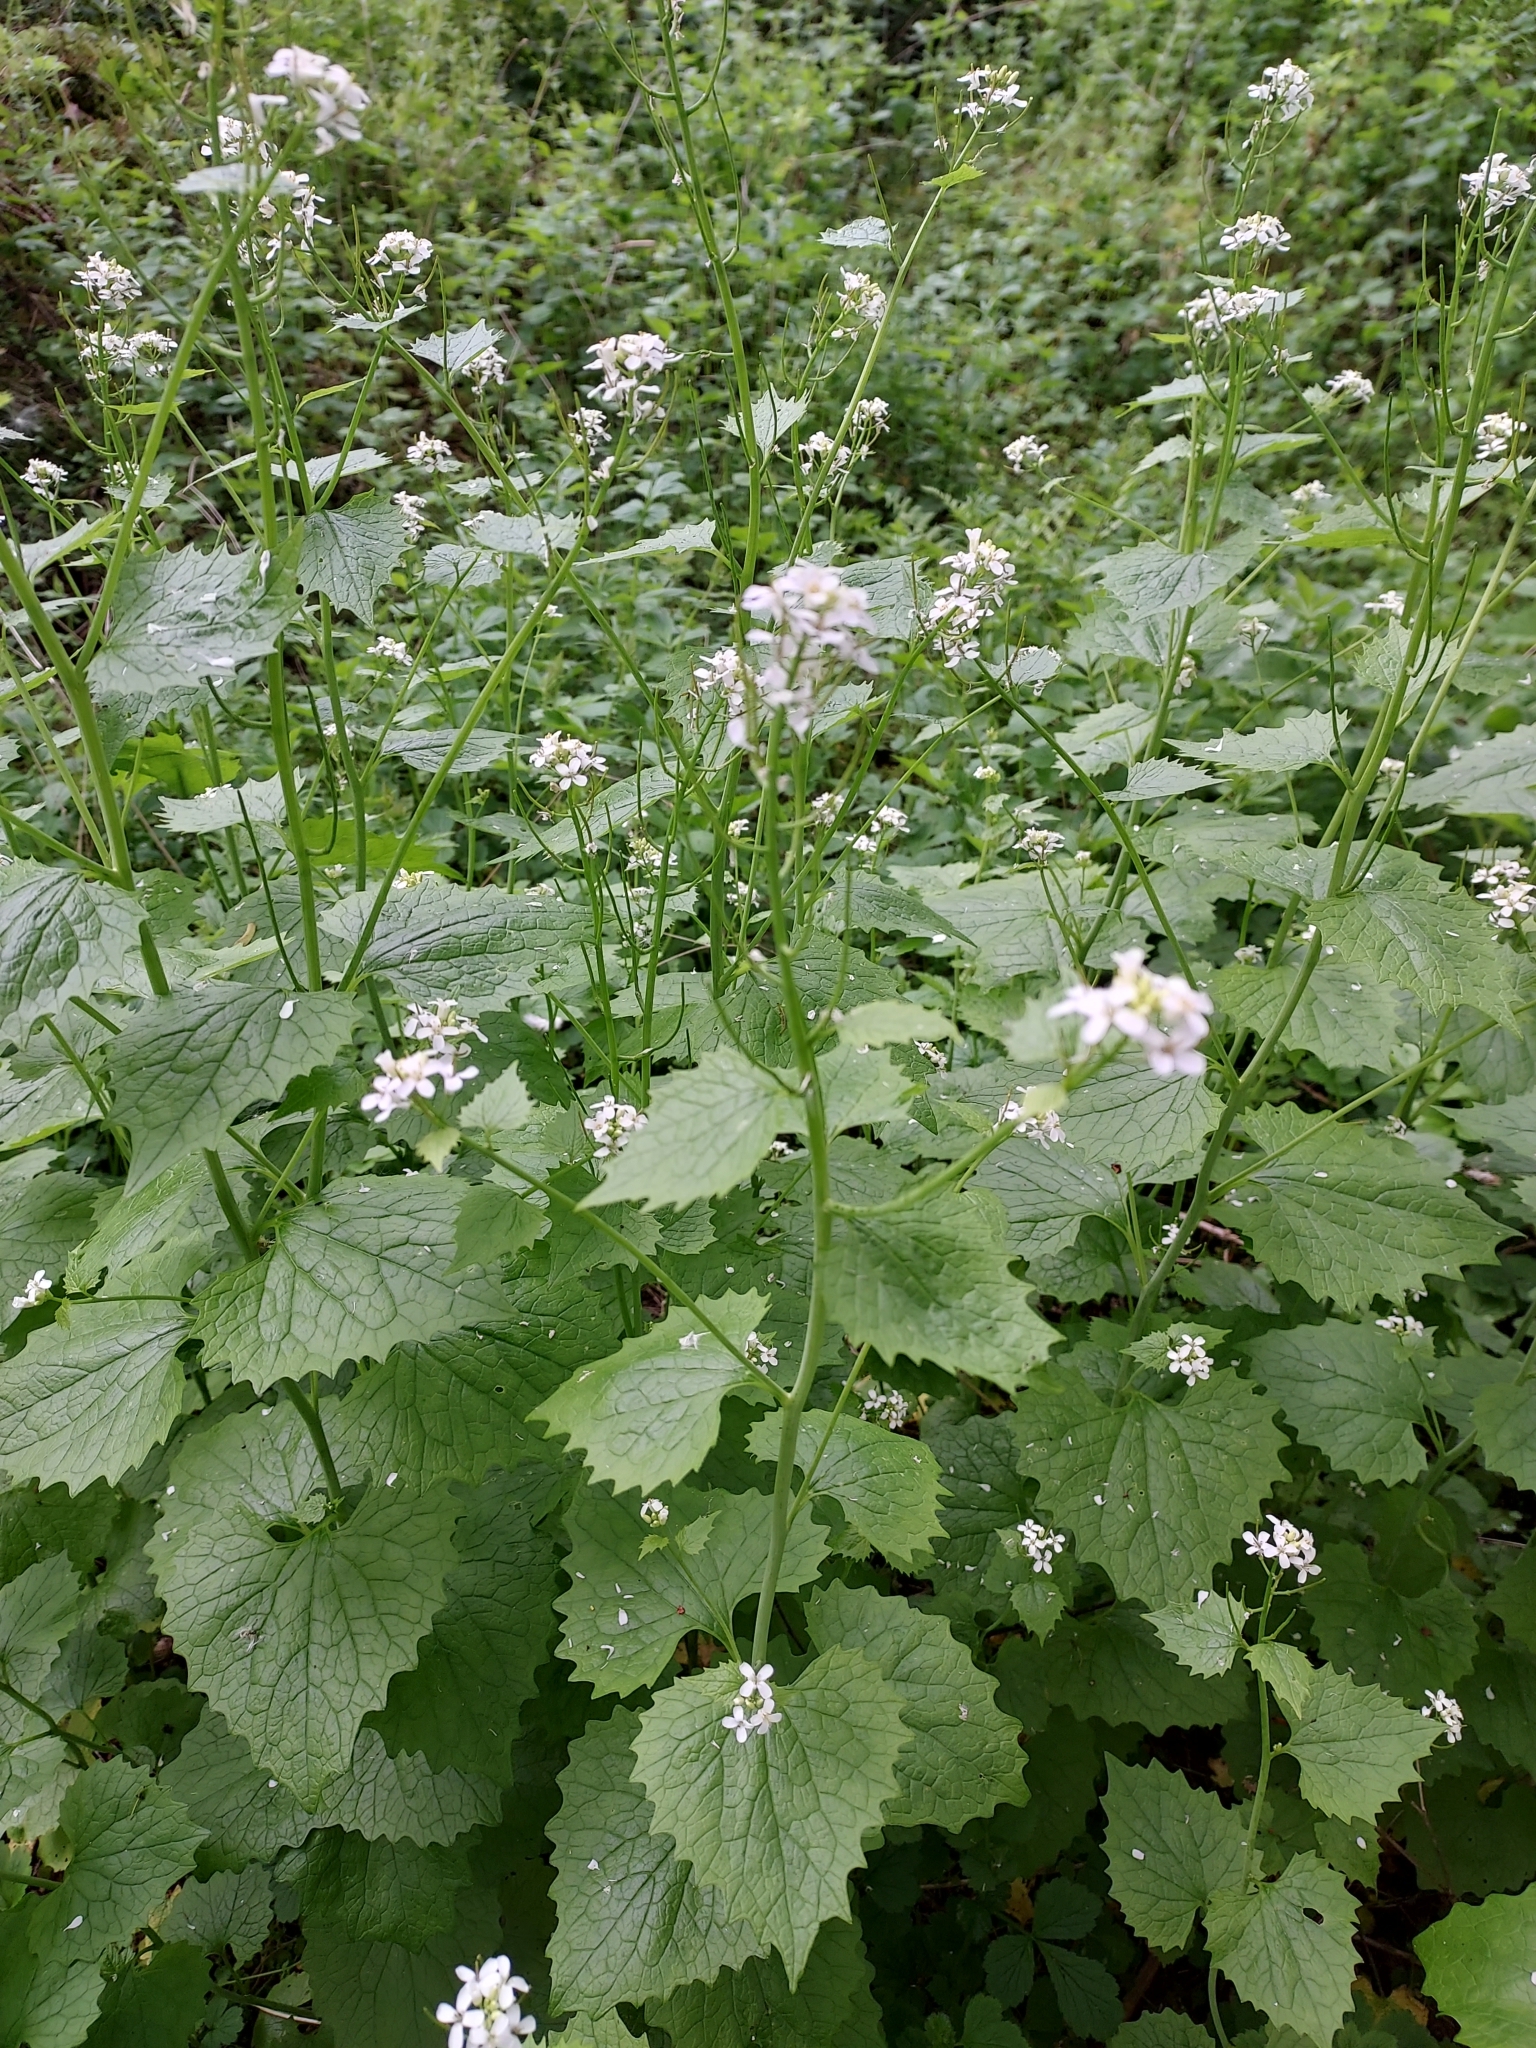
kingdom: Plantae
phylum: Tracheophyta
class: Magnoliopsida
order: Brassicales
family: Brassicaceae
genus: Alliaria
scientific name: Alliaria petiolata
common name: Garlic mustard
